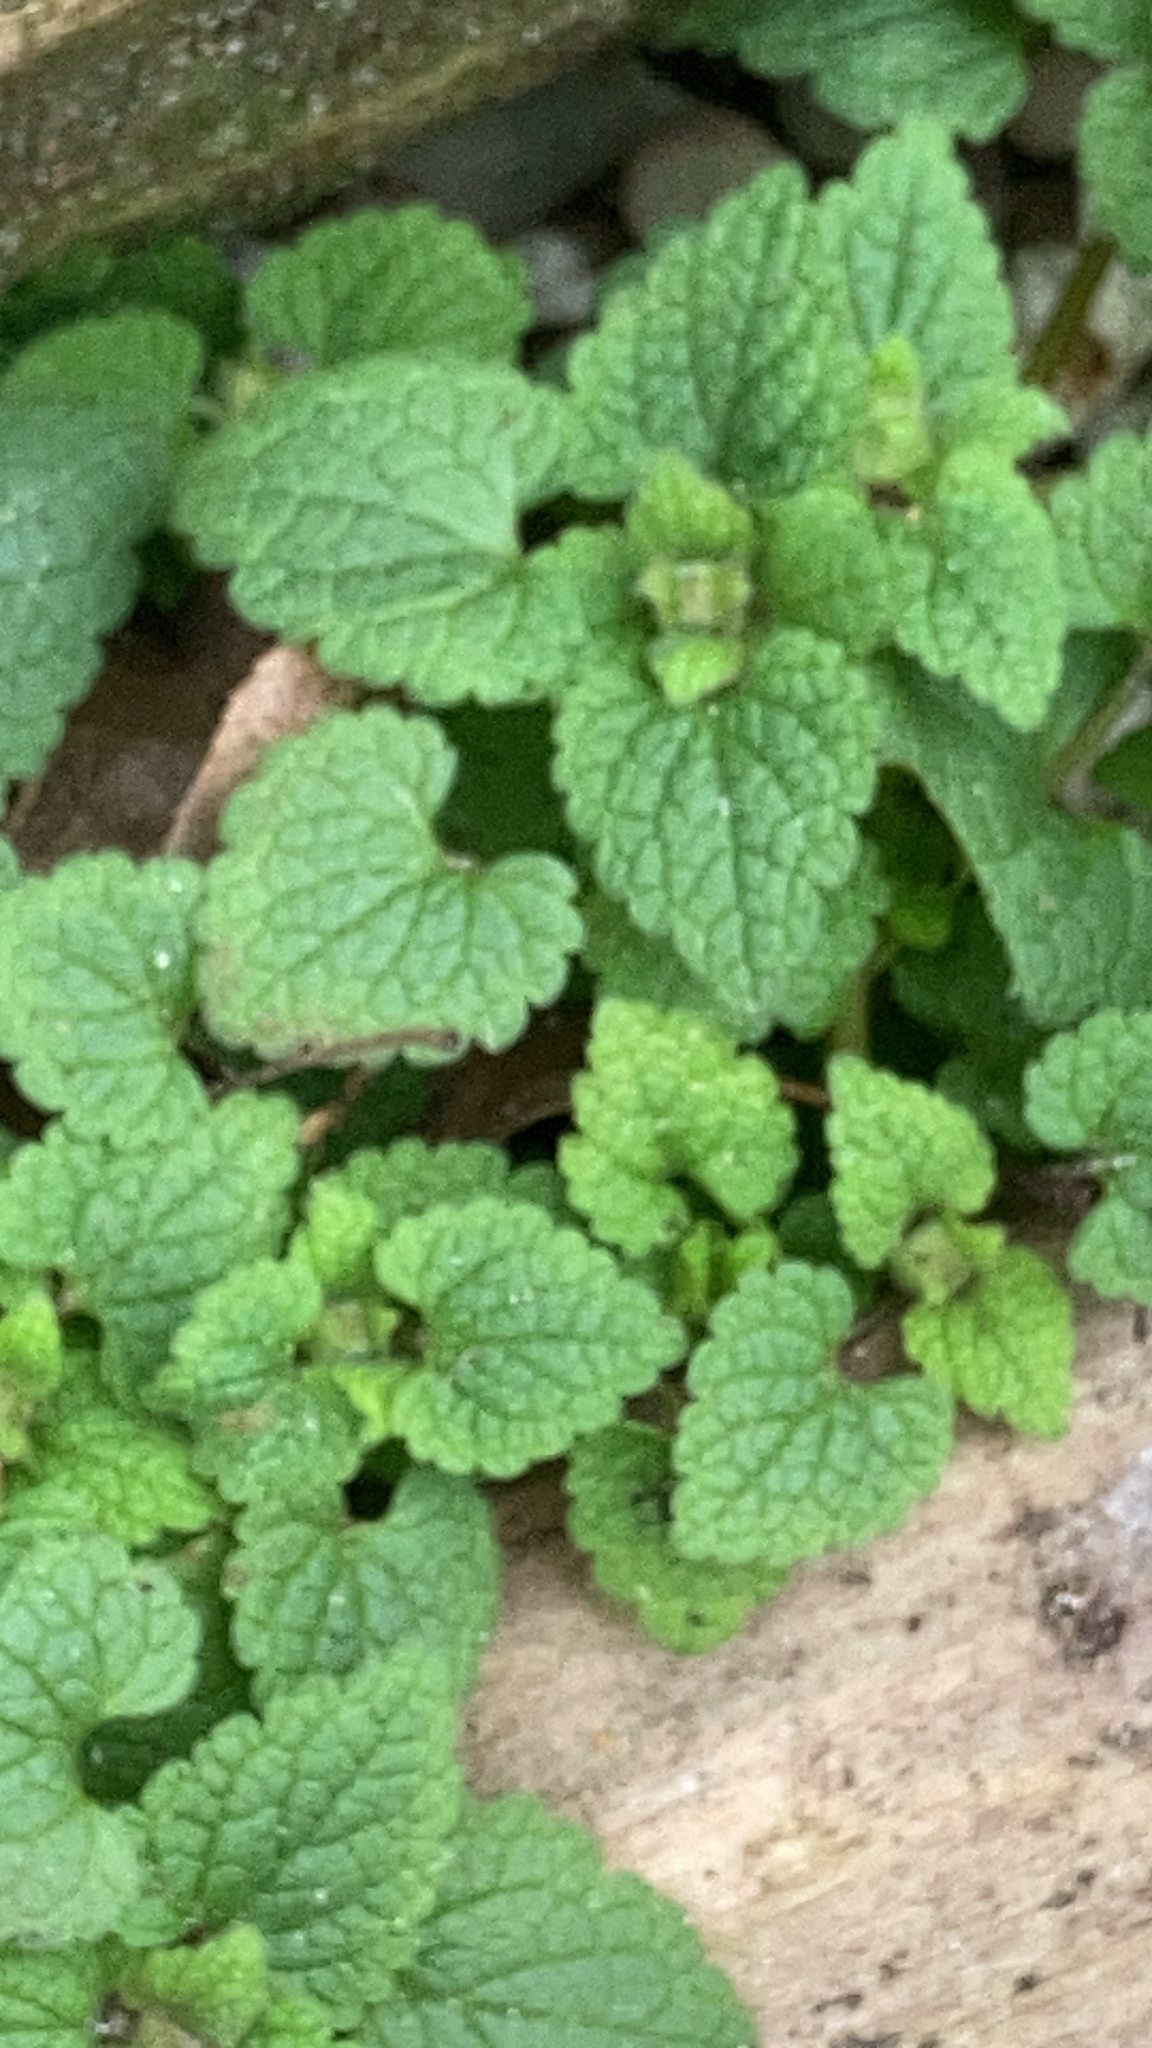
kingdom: Plantae
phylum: Tracheophyta
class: Magnoliopsida
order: Lamiales
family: Lamiaceae
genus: Lamium
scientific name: Lamium purpureum
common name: Red dead-nettle
